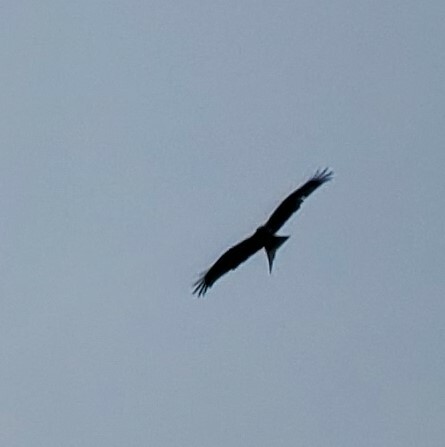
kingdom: Animalia
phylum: Chordata
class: Aves
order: Accipitriformes
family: Accipitridae
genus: Milvus
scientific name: Milvus milvus
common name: Red kite
